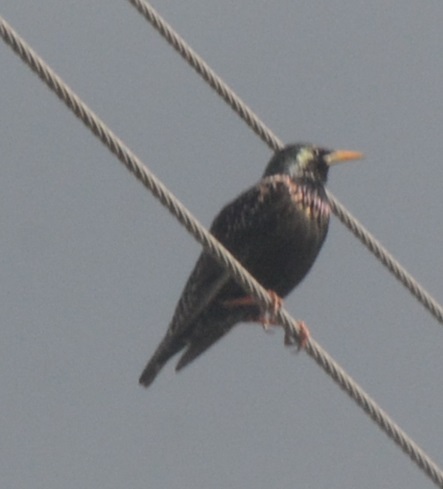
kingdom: Animalia
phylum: Chordata
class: Aves
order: Passeriformes
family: Sturnidae
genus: Sturnus
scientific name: Sturnus vulgaris
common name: Common starling
